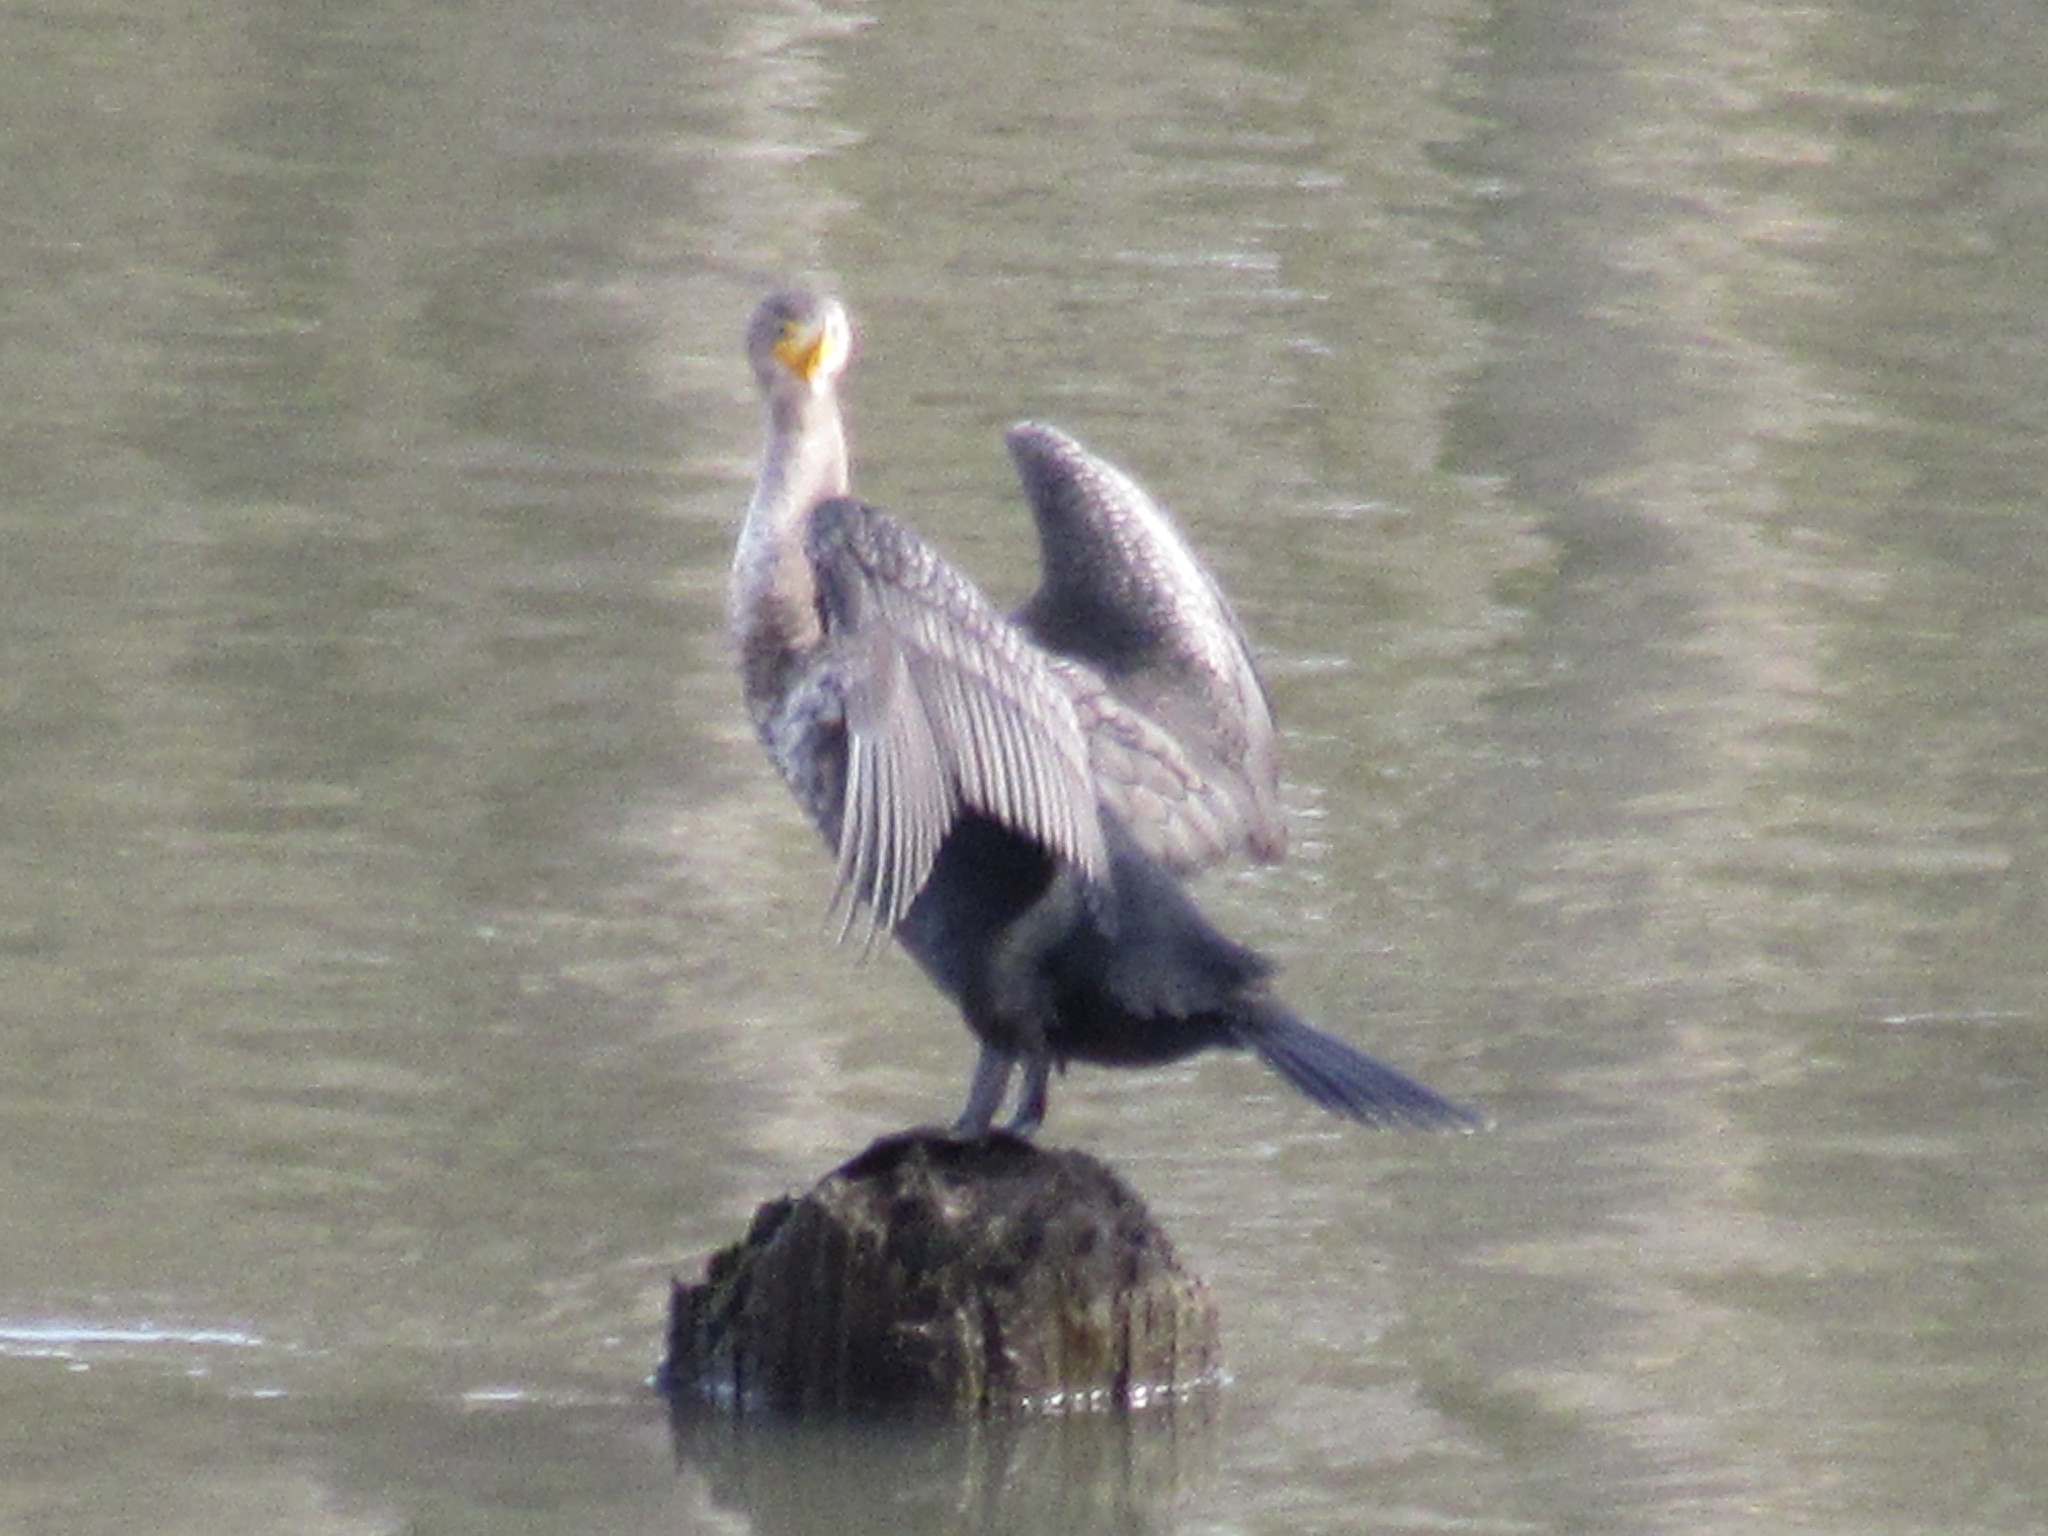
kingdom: Animalia
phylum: Chordata
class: Aves
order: Suliformes
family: Phalacrocoracidae
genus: Phalacrocorax
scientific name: Phalacrocorax auritus
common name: Double-crested cormorant
